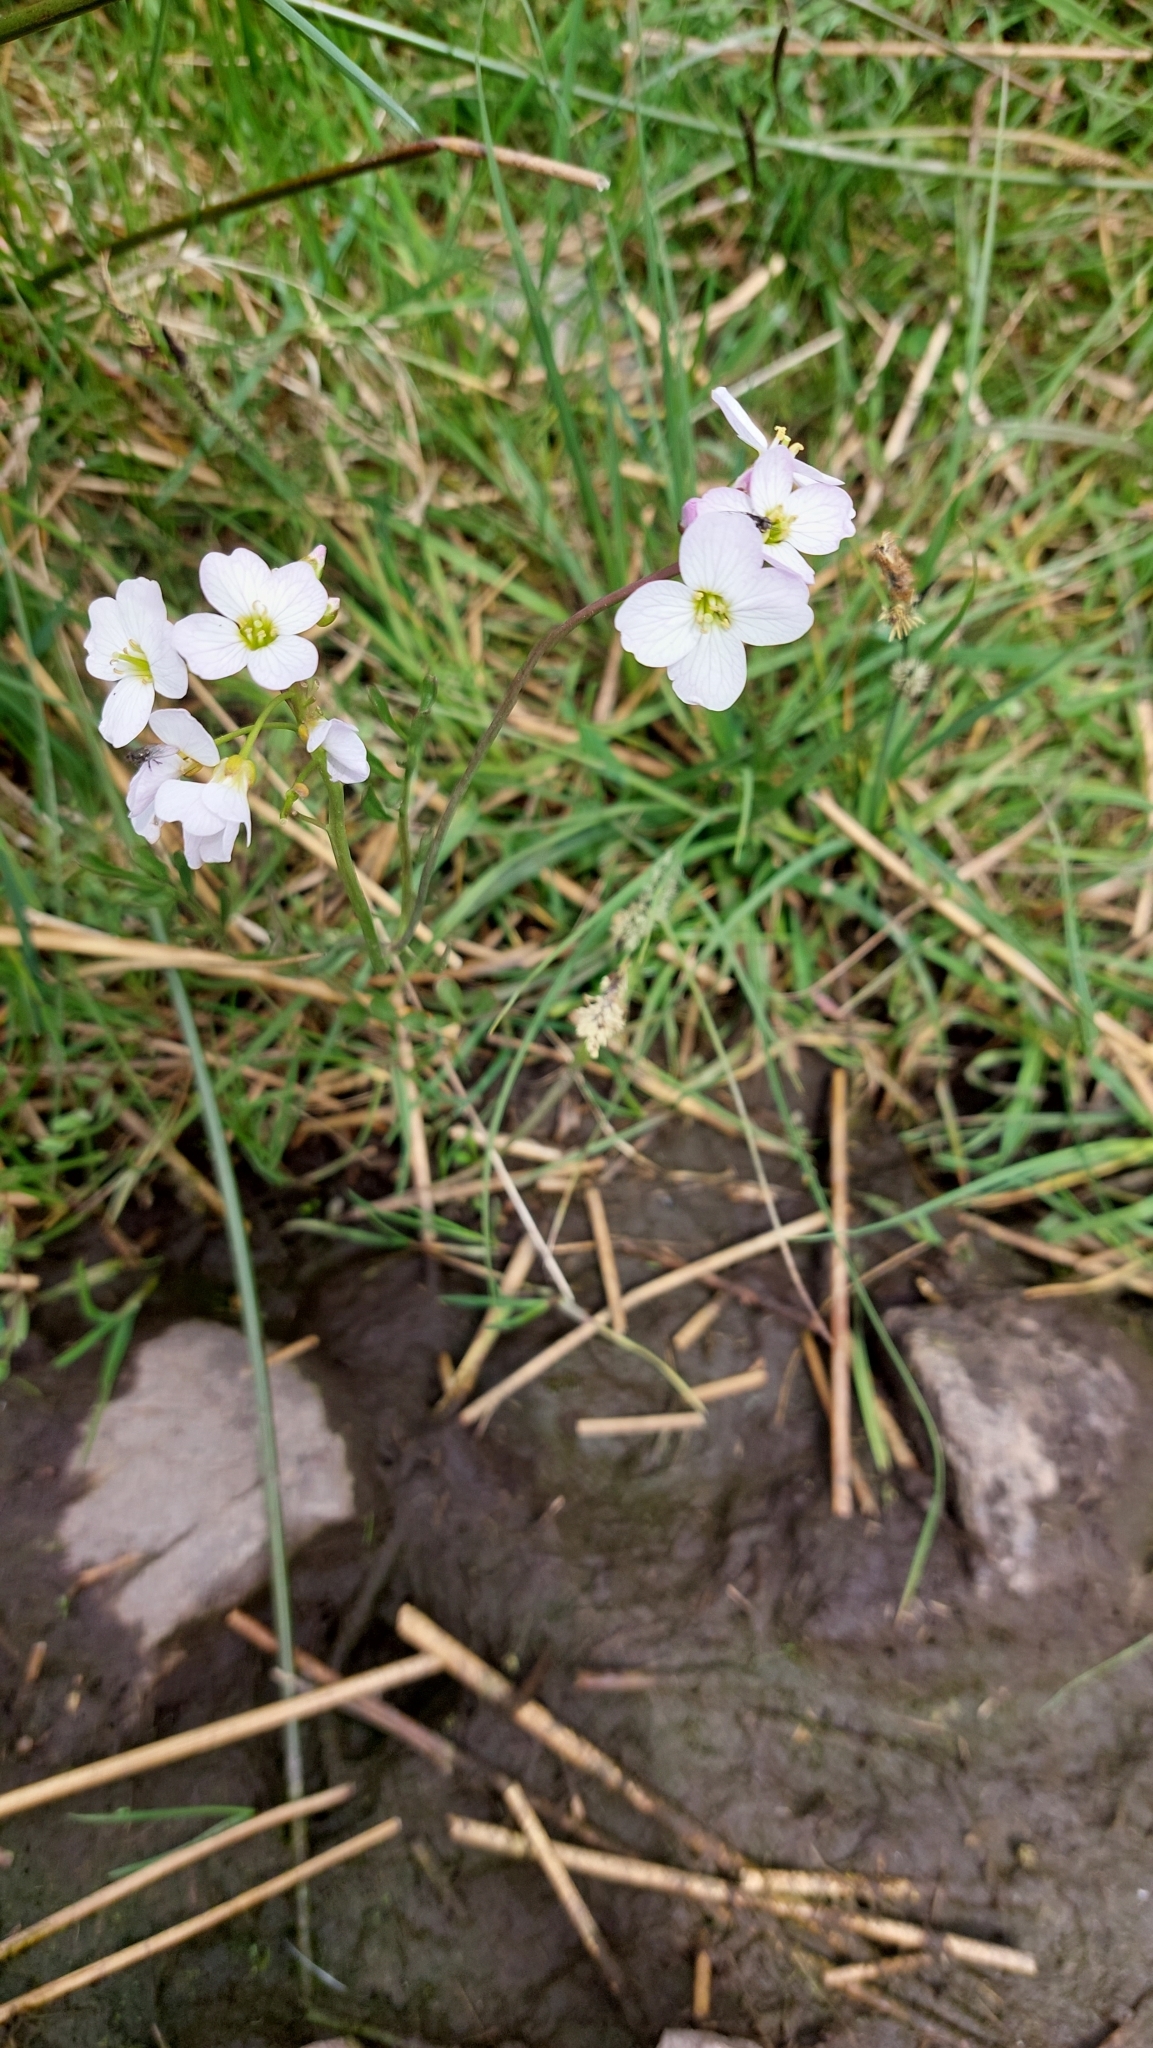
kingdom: Plantae
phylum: Tracheophyta
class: Magnoliopsida
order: Brassicales
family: Brassicaceae
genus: Cardamine
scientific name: Cardamine pratensis
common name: Cuckoo flower
